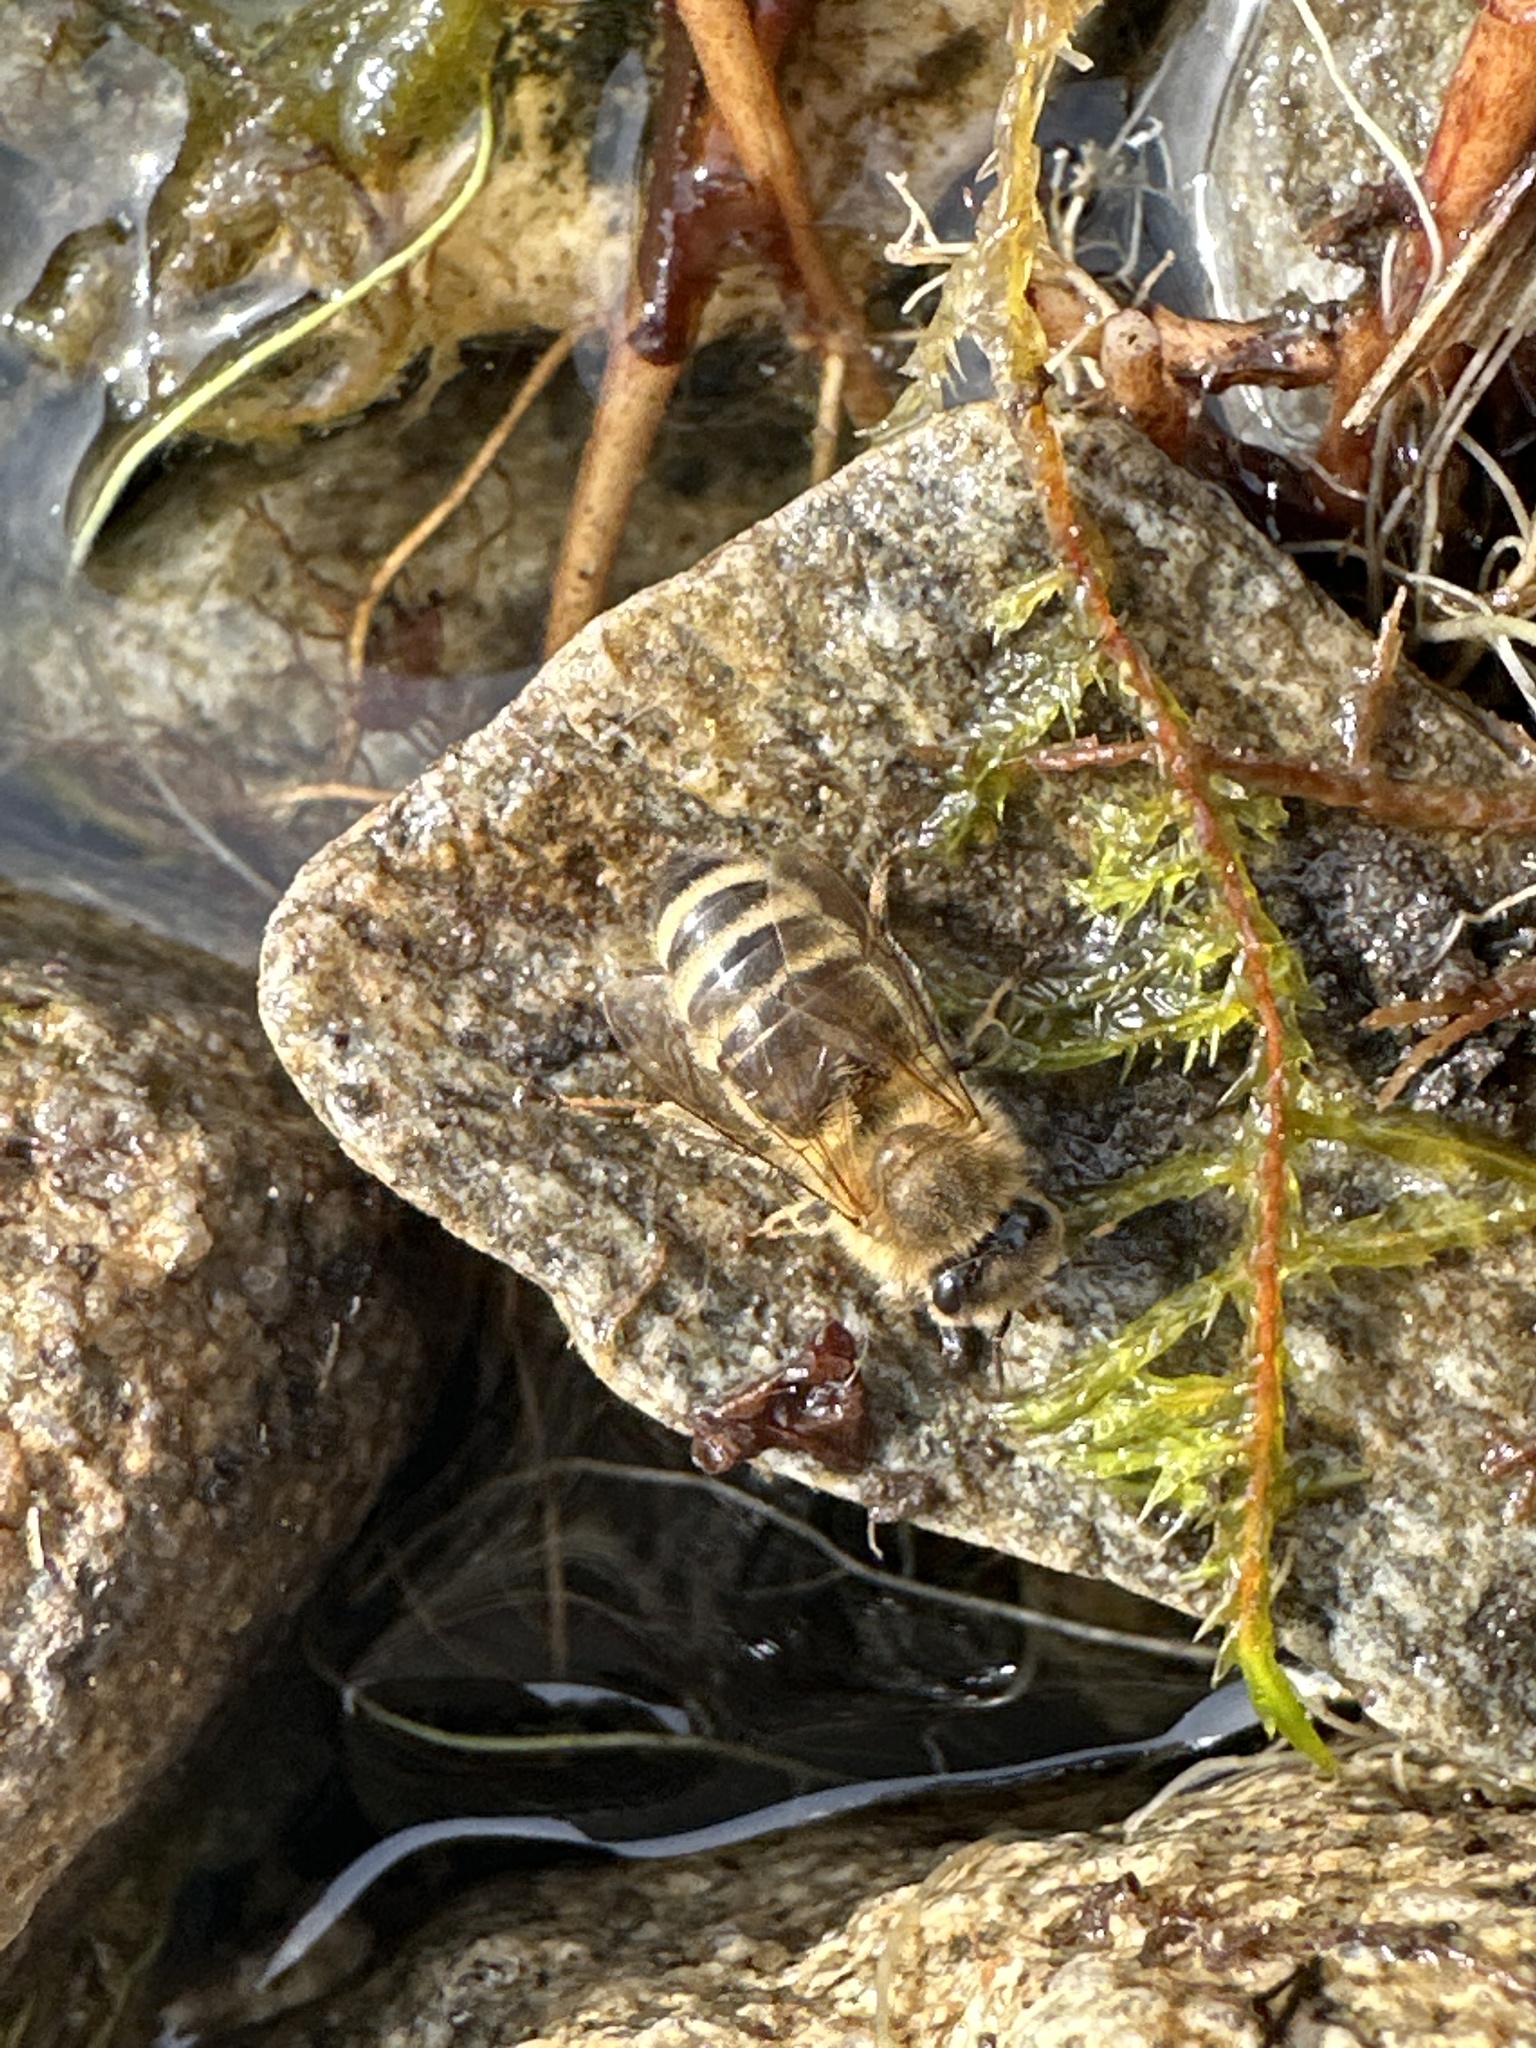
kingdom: Animalia
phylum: Arthropoda
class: Insecta
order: Hymenoptera
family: Apidae
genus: Apis
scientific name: Apis mellifera
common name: Honey bee
